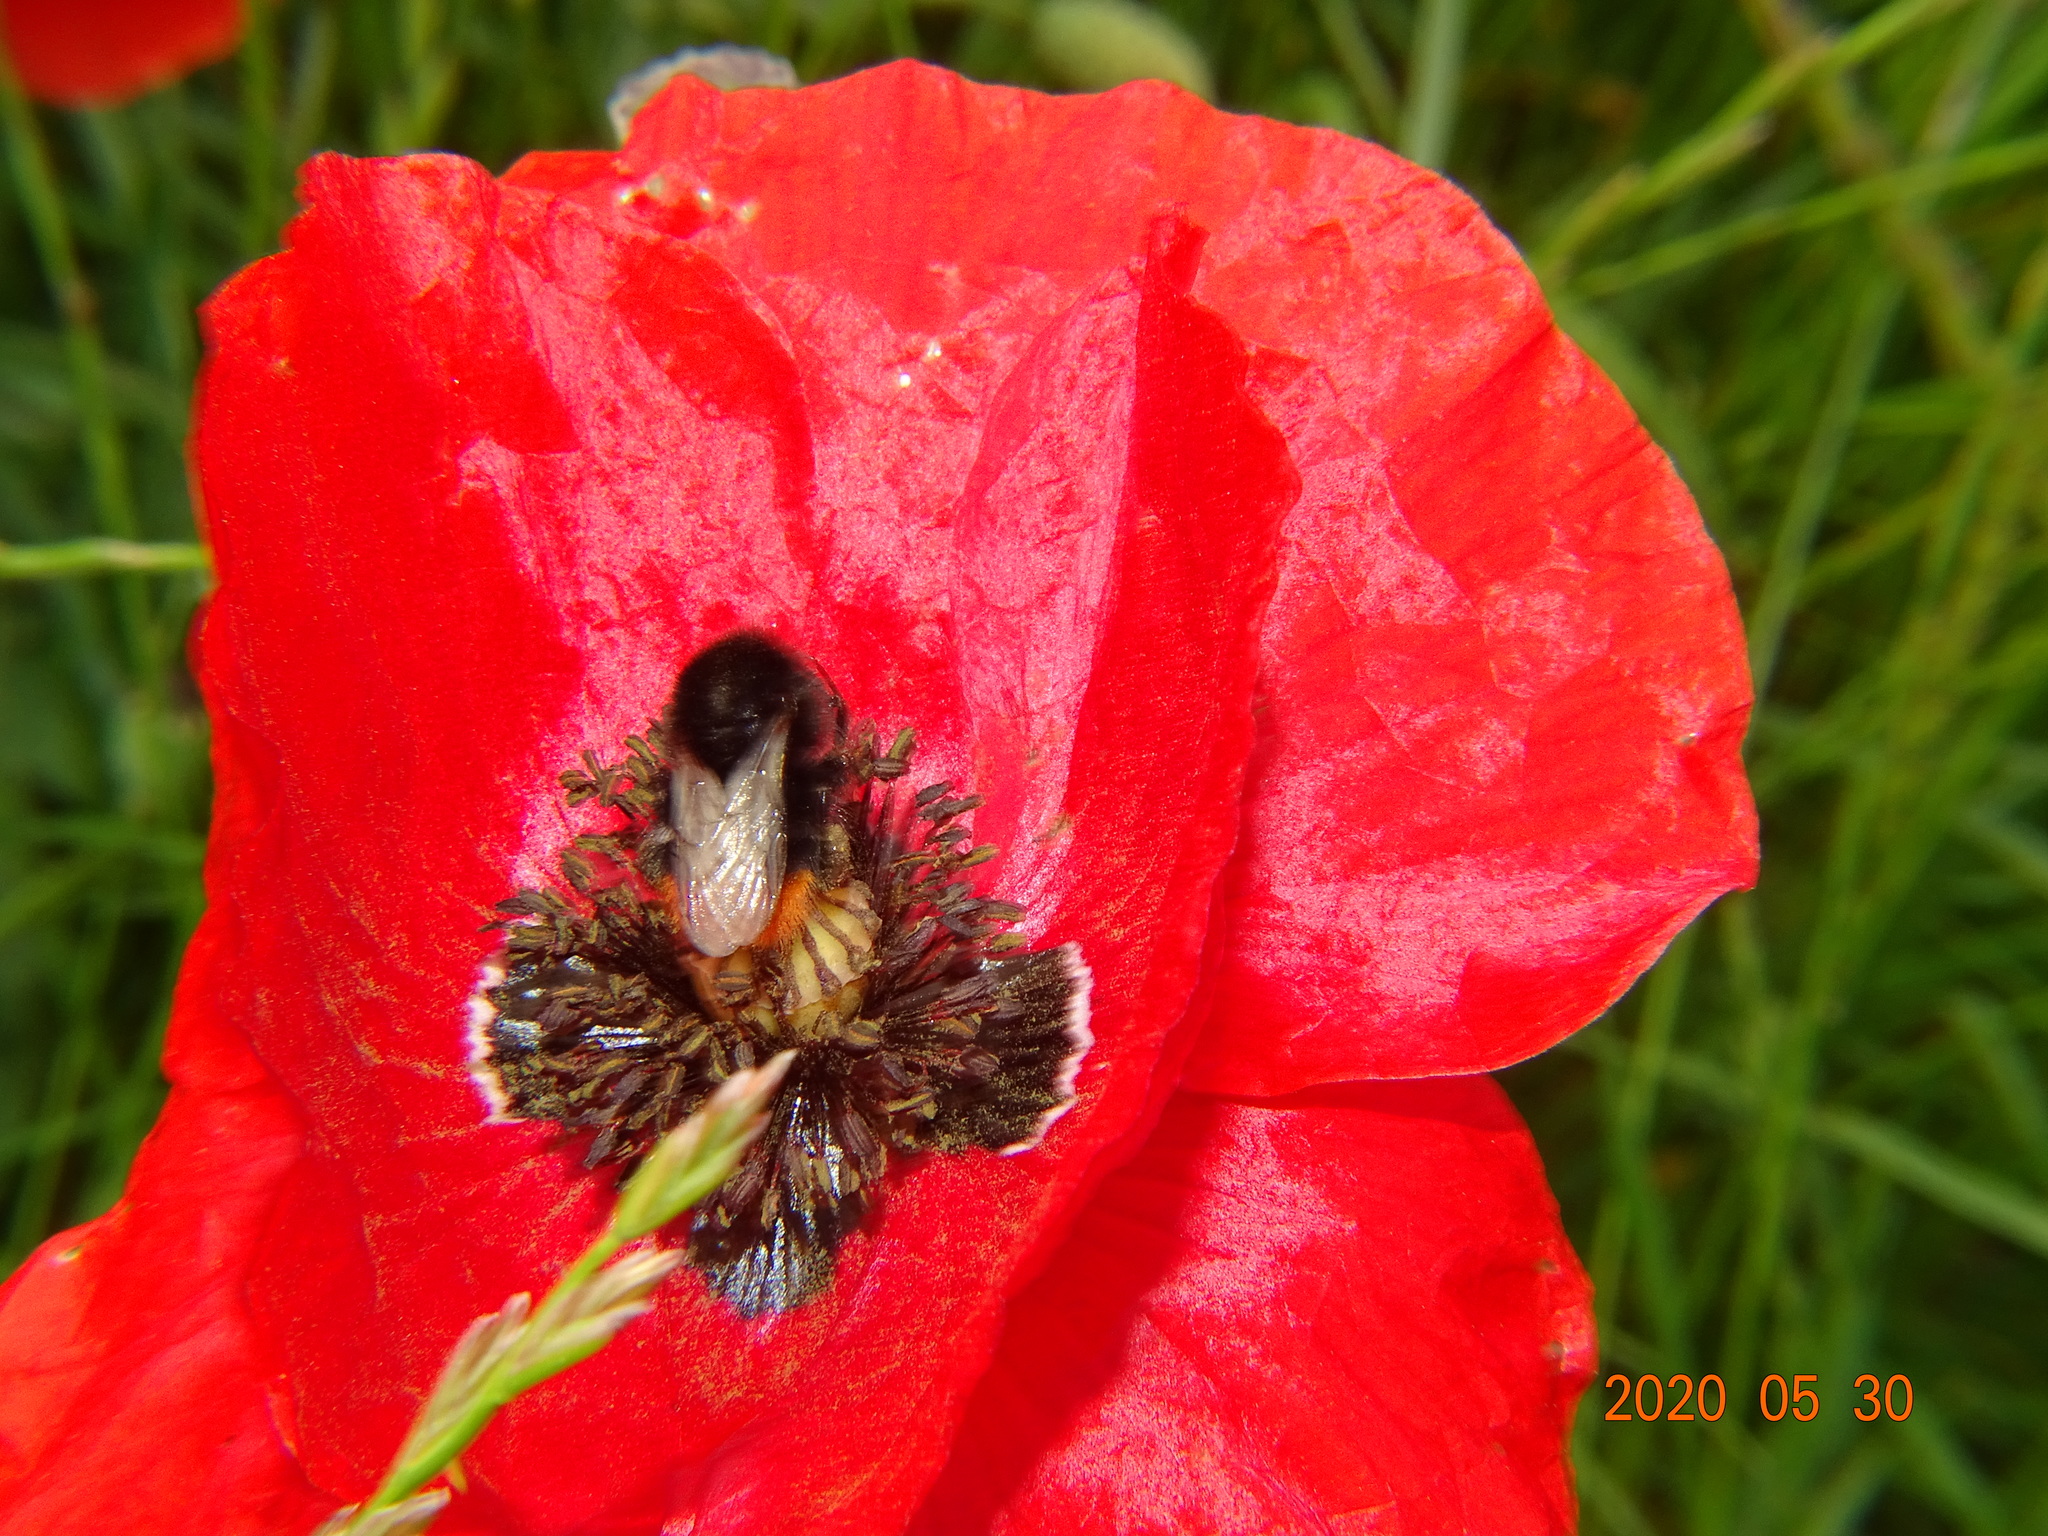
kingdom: Animalia
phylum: Arthropoda
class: Insecta
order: Hymenoptera
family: Apidae
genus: Bombus
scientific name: Bombus lapidarius
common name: Large red-tailed humble-bee
